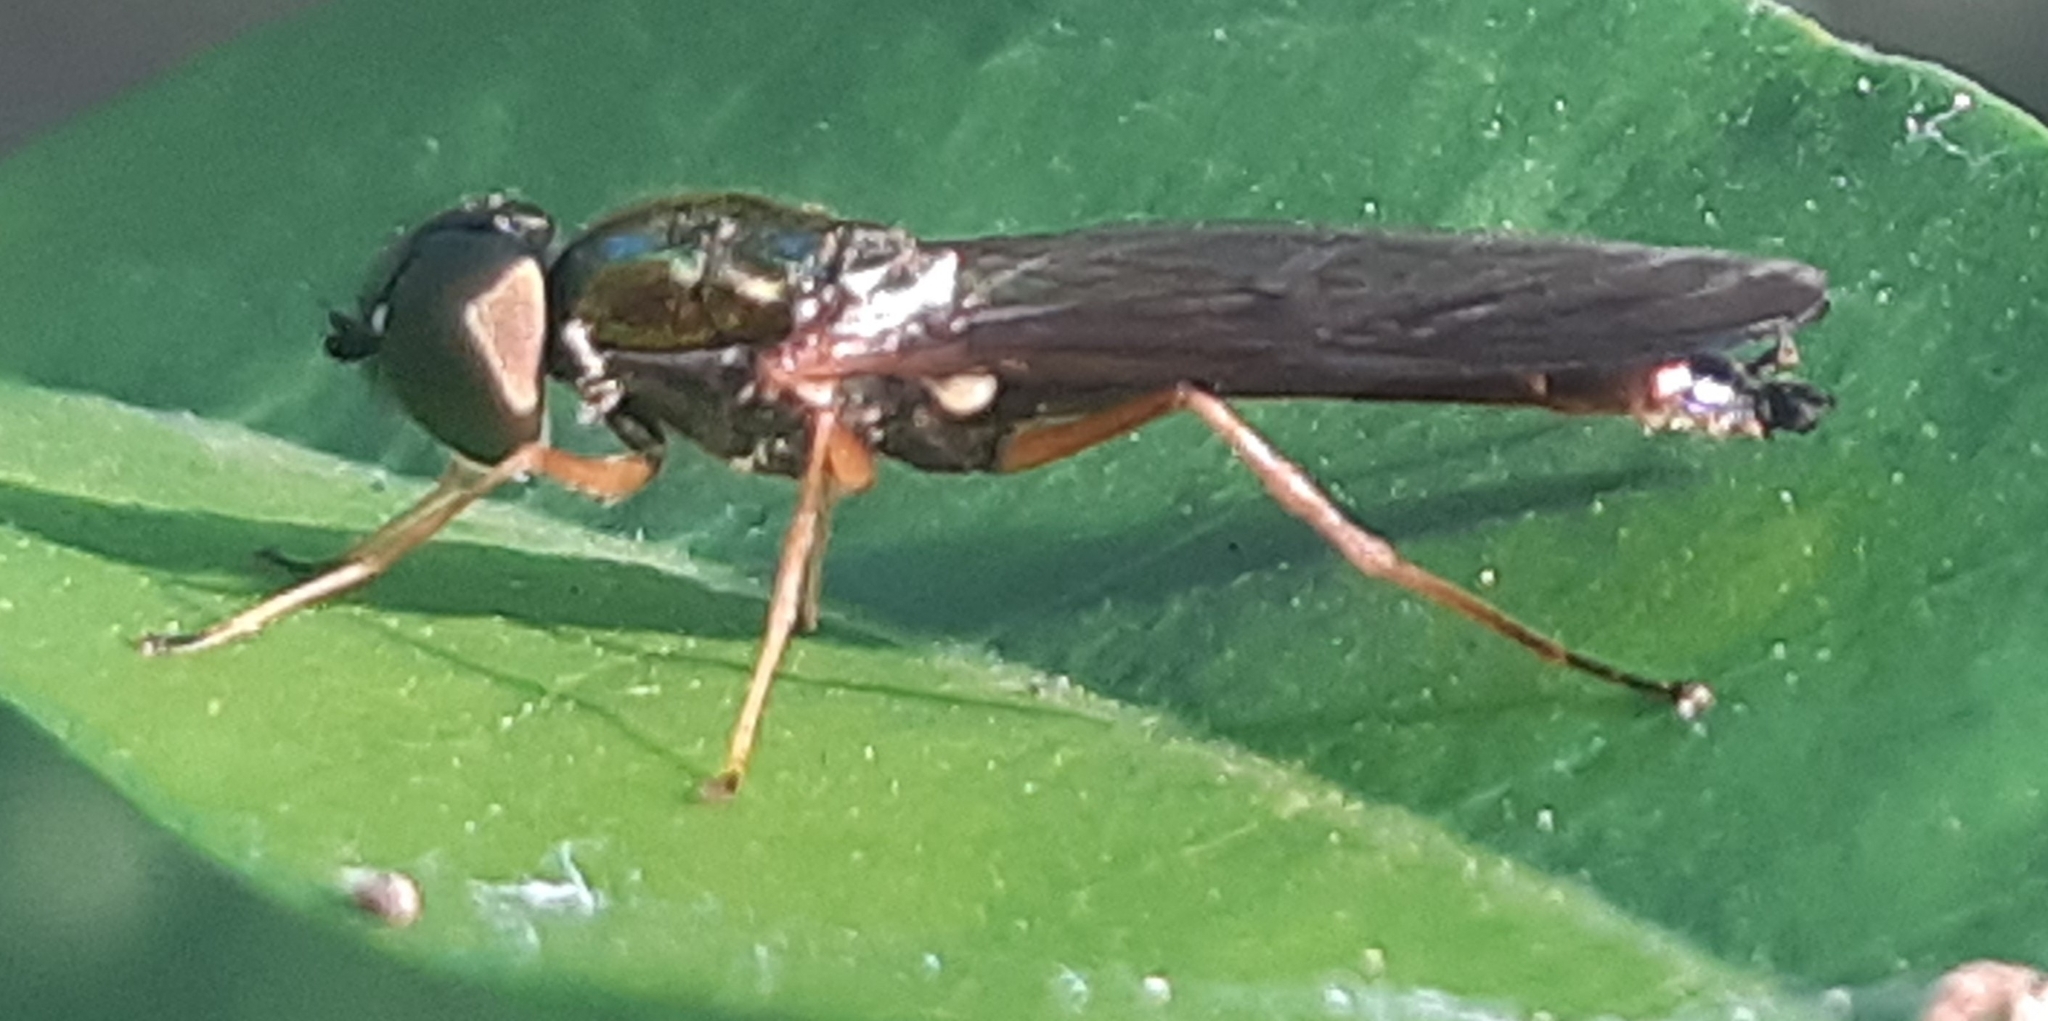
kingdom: Animalia
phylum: Arthropoda
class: Insecta
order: Diptera
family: Stratiomyidae
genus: Sargus
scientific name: Sargus bipunctatus
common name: Twin-spot centurion
